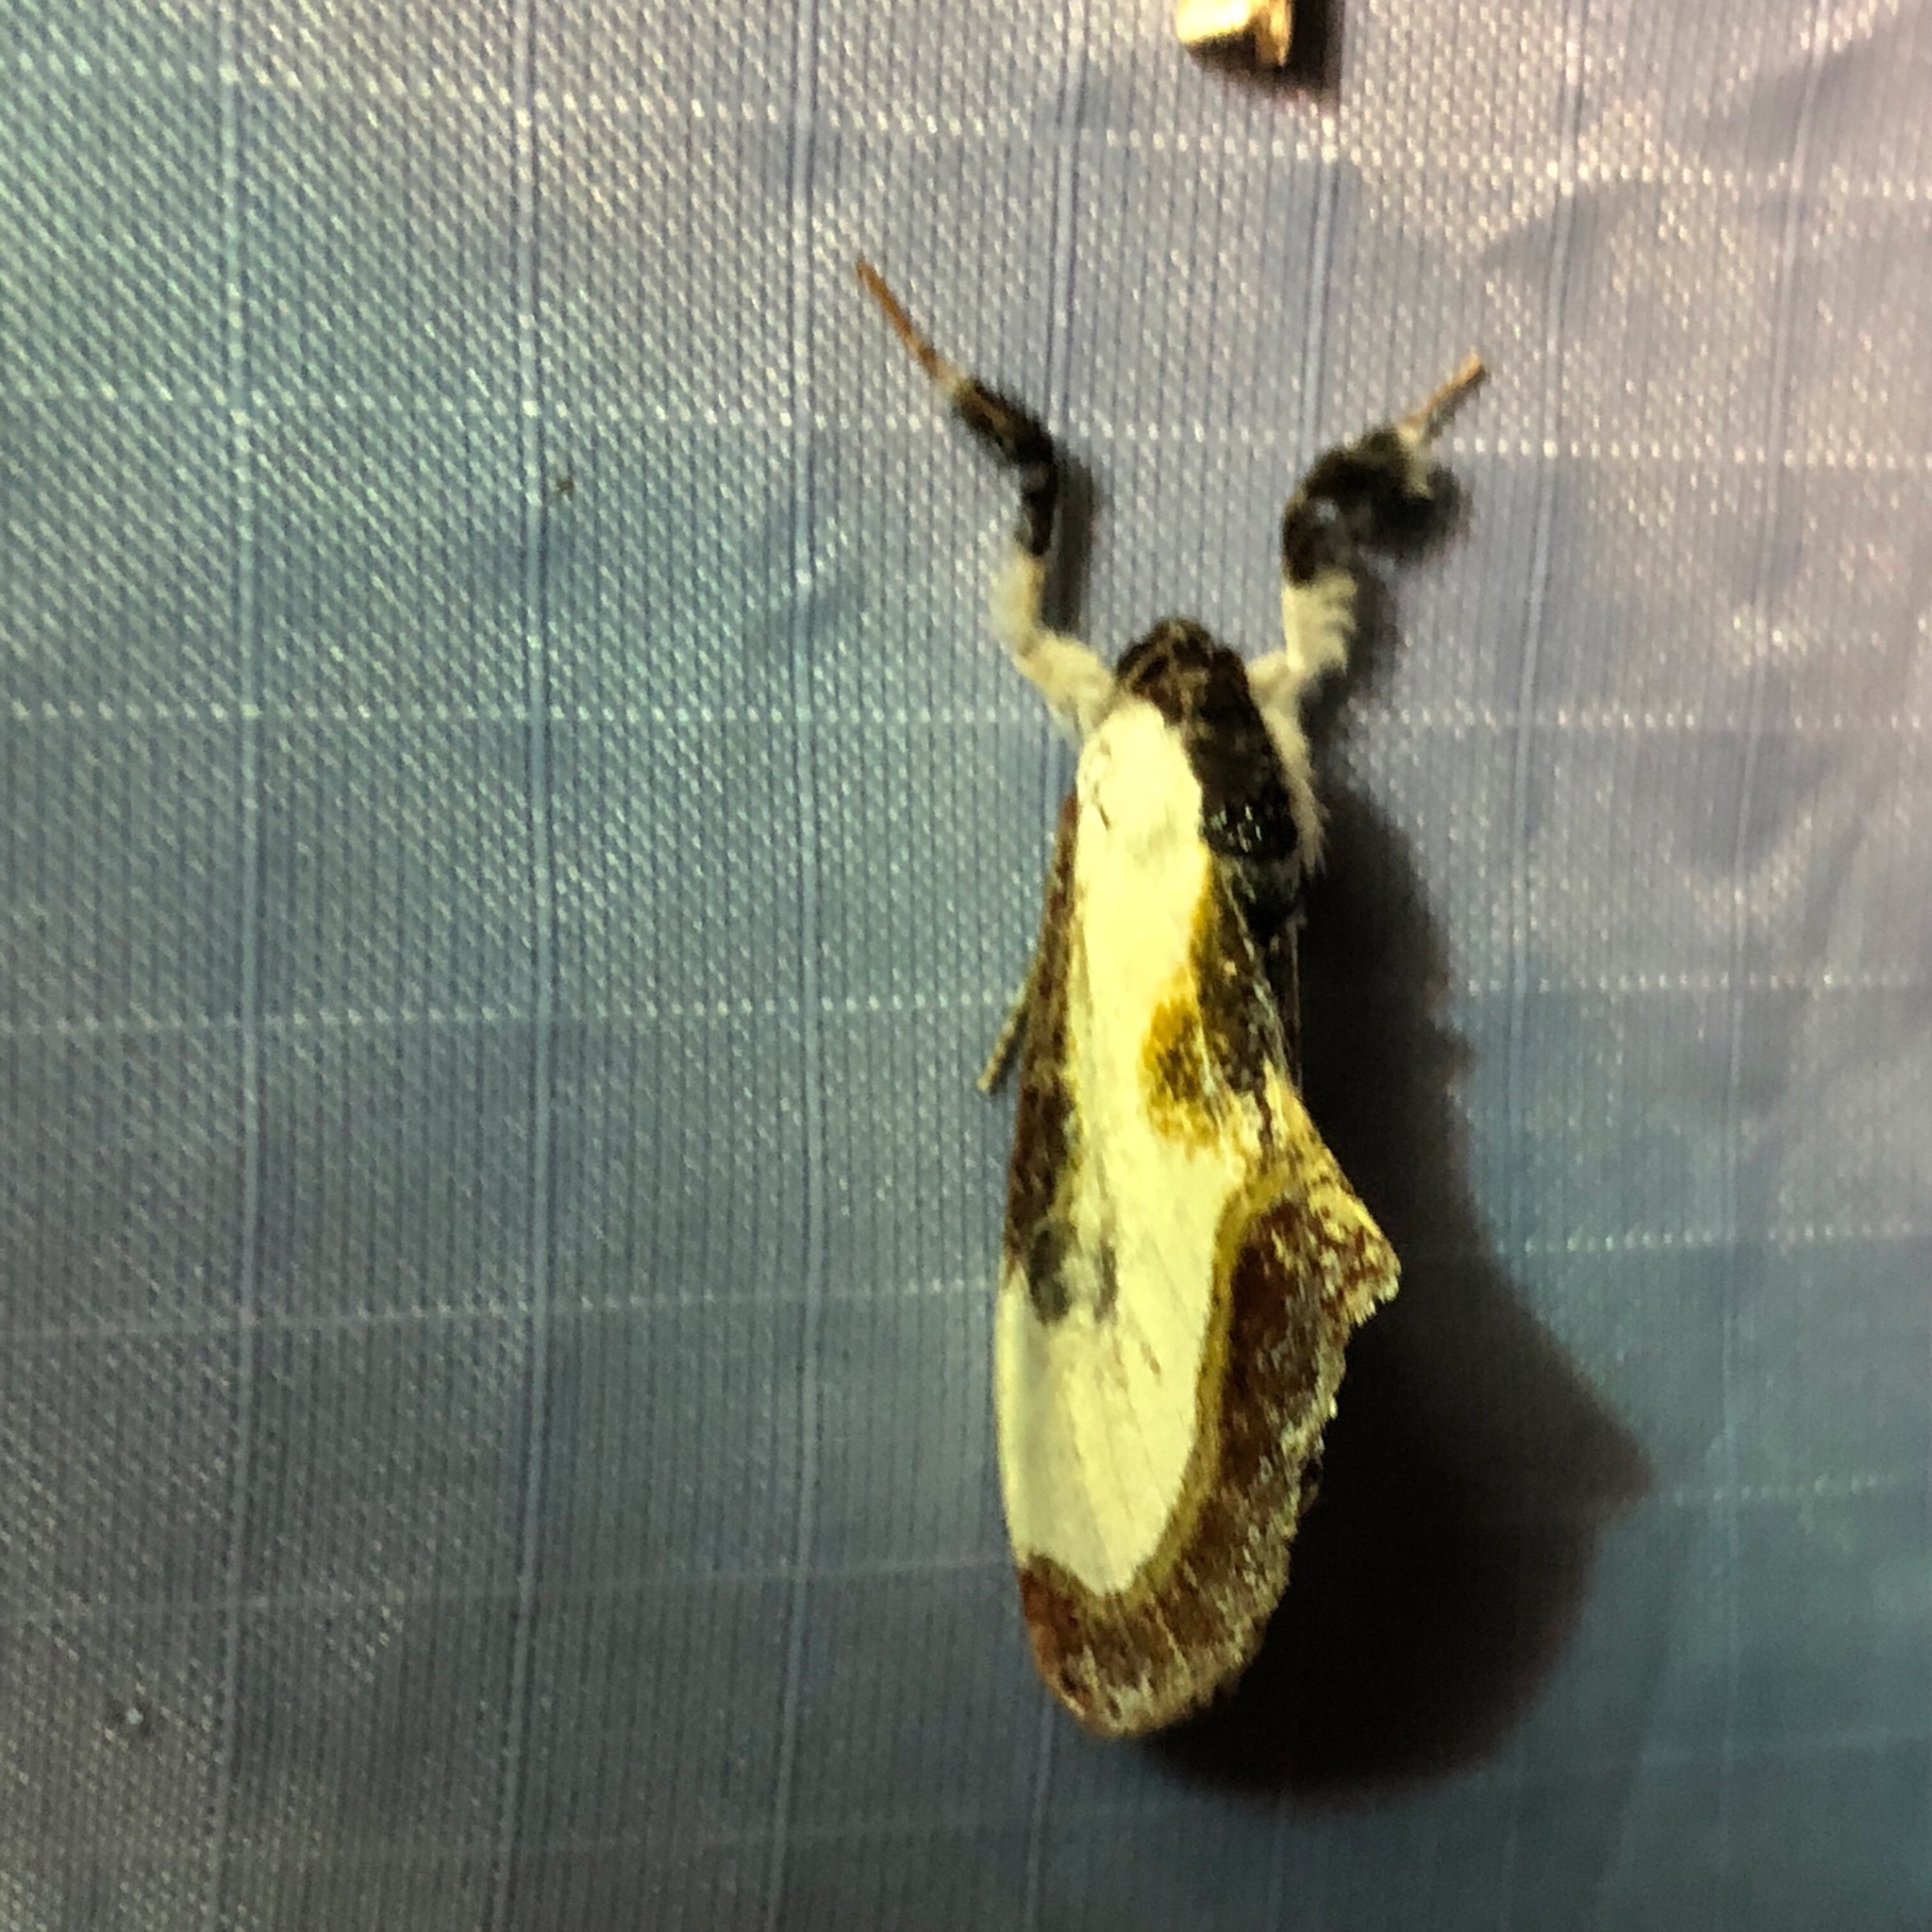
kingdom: Animalia
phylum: Arthropoda
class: Insecta
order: Lepidoptera
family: Noctuidae
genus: Eudryas
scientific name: Eudryas grata
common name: Beautiful wood-nymph
